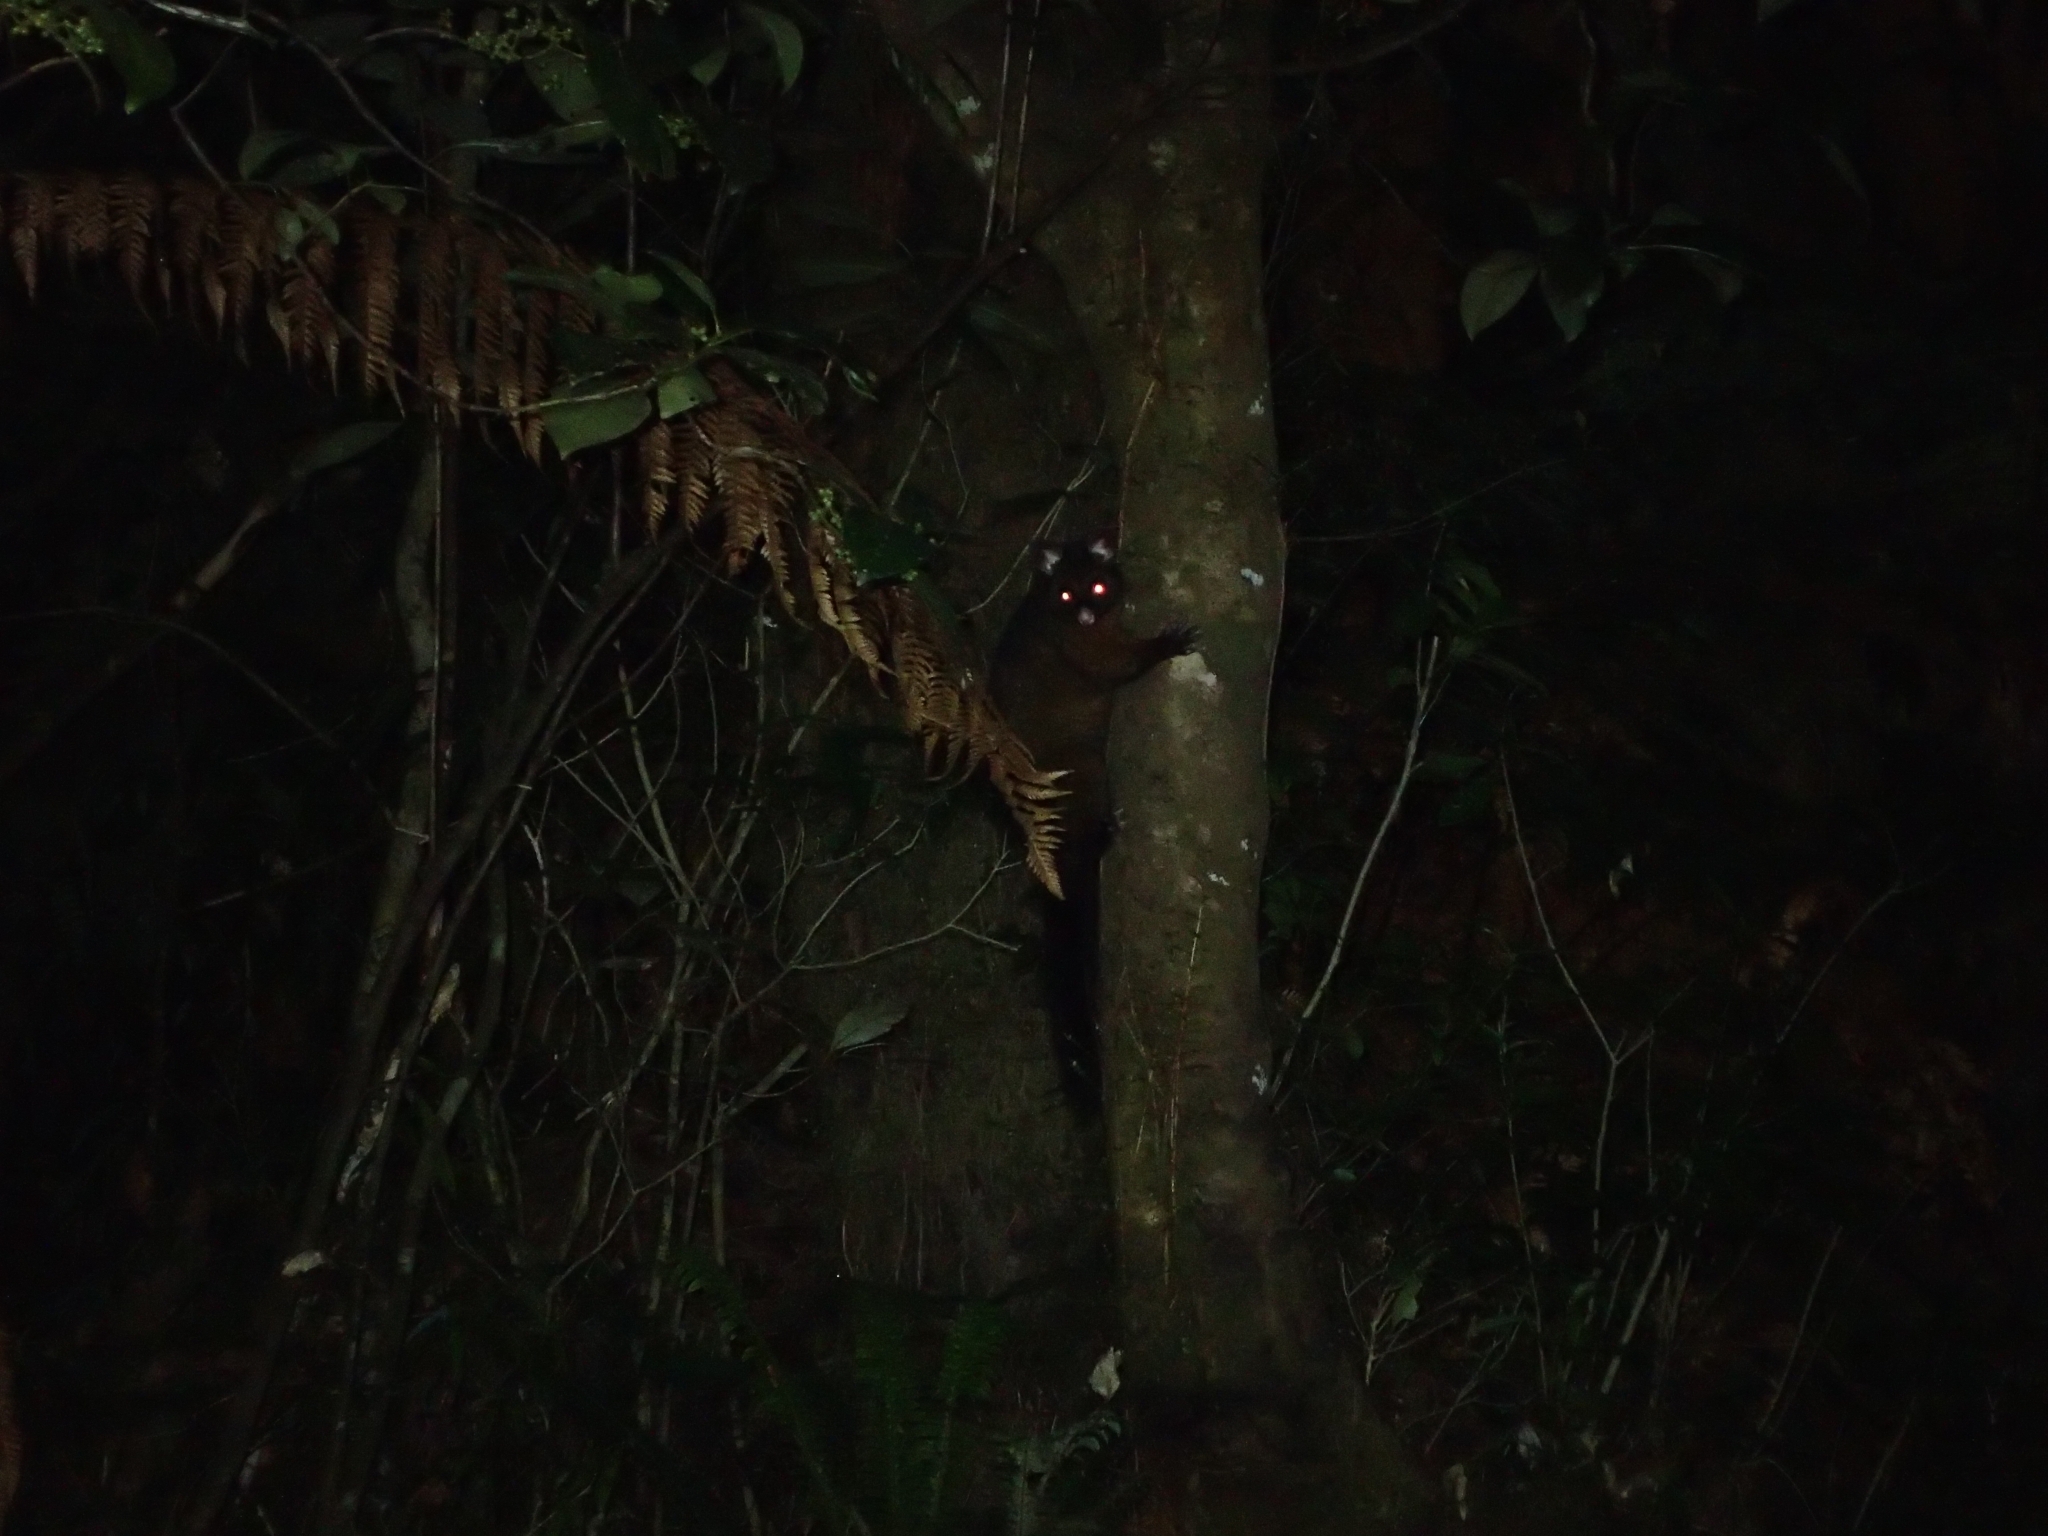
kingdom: Animalia
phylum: Chordata
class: Mammalia
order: Diprotodontia
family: Phalangeridae
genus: Trichosurus
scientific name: Trichosurus vulpecula
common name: Common brushtail
